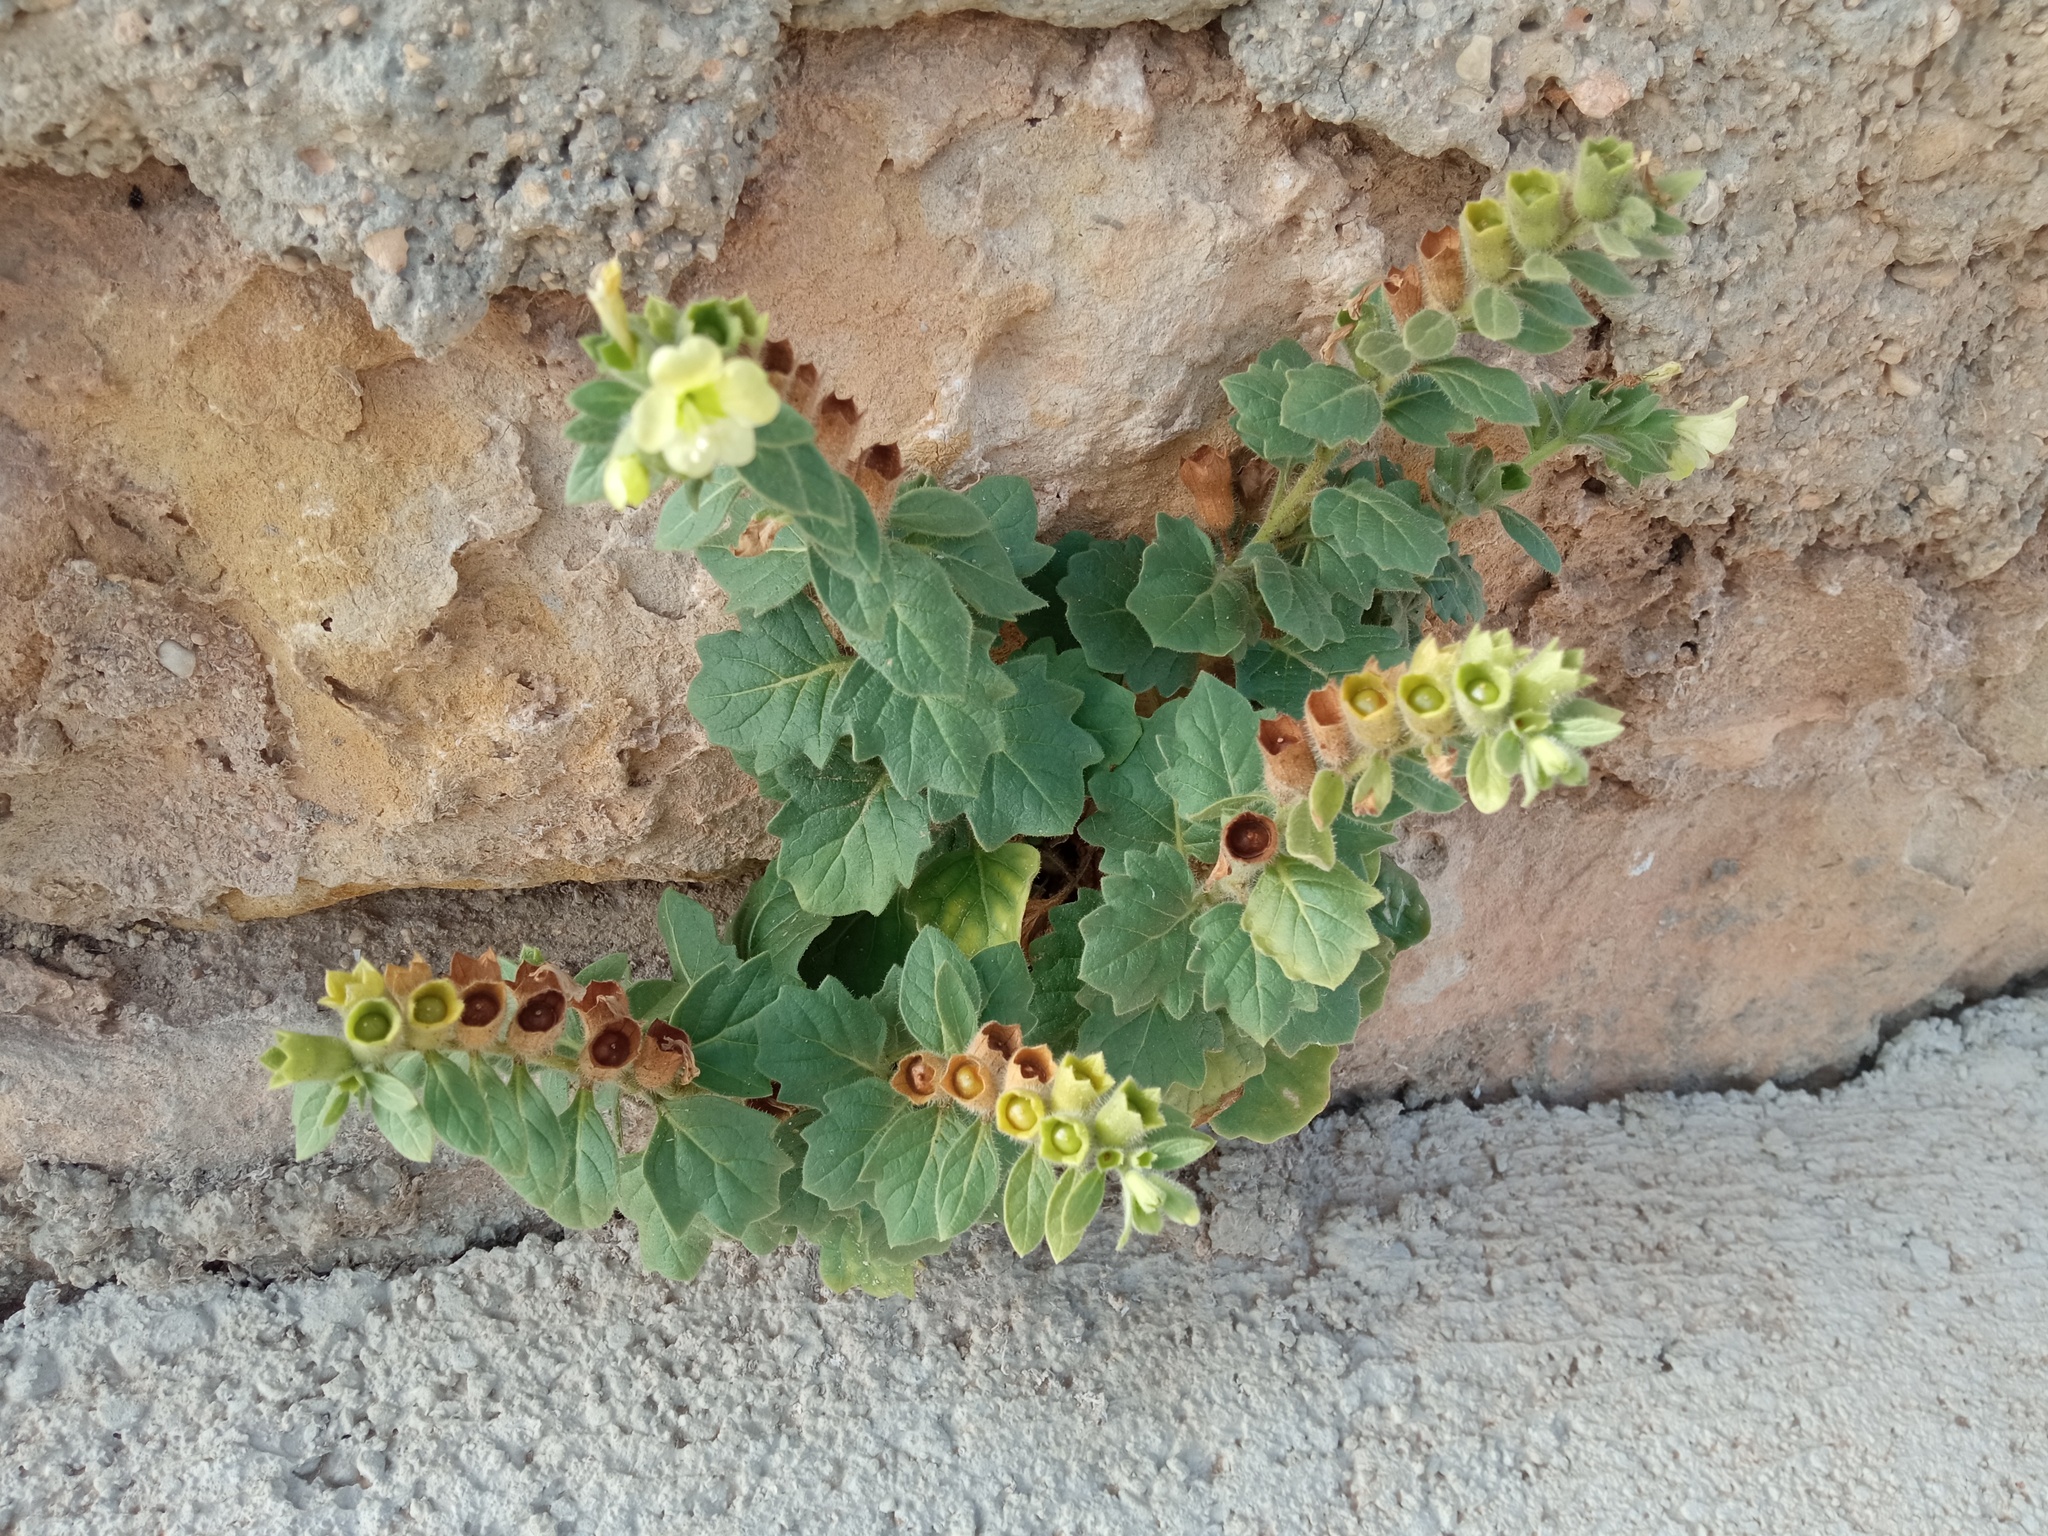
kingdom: Plantae
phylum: Tracheophyta
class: Magnoliopsida
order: Solanales
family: Solanaceae
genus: Hyoscyamus
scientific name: Hyoscyamus albus
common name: White henbane
